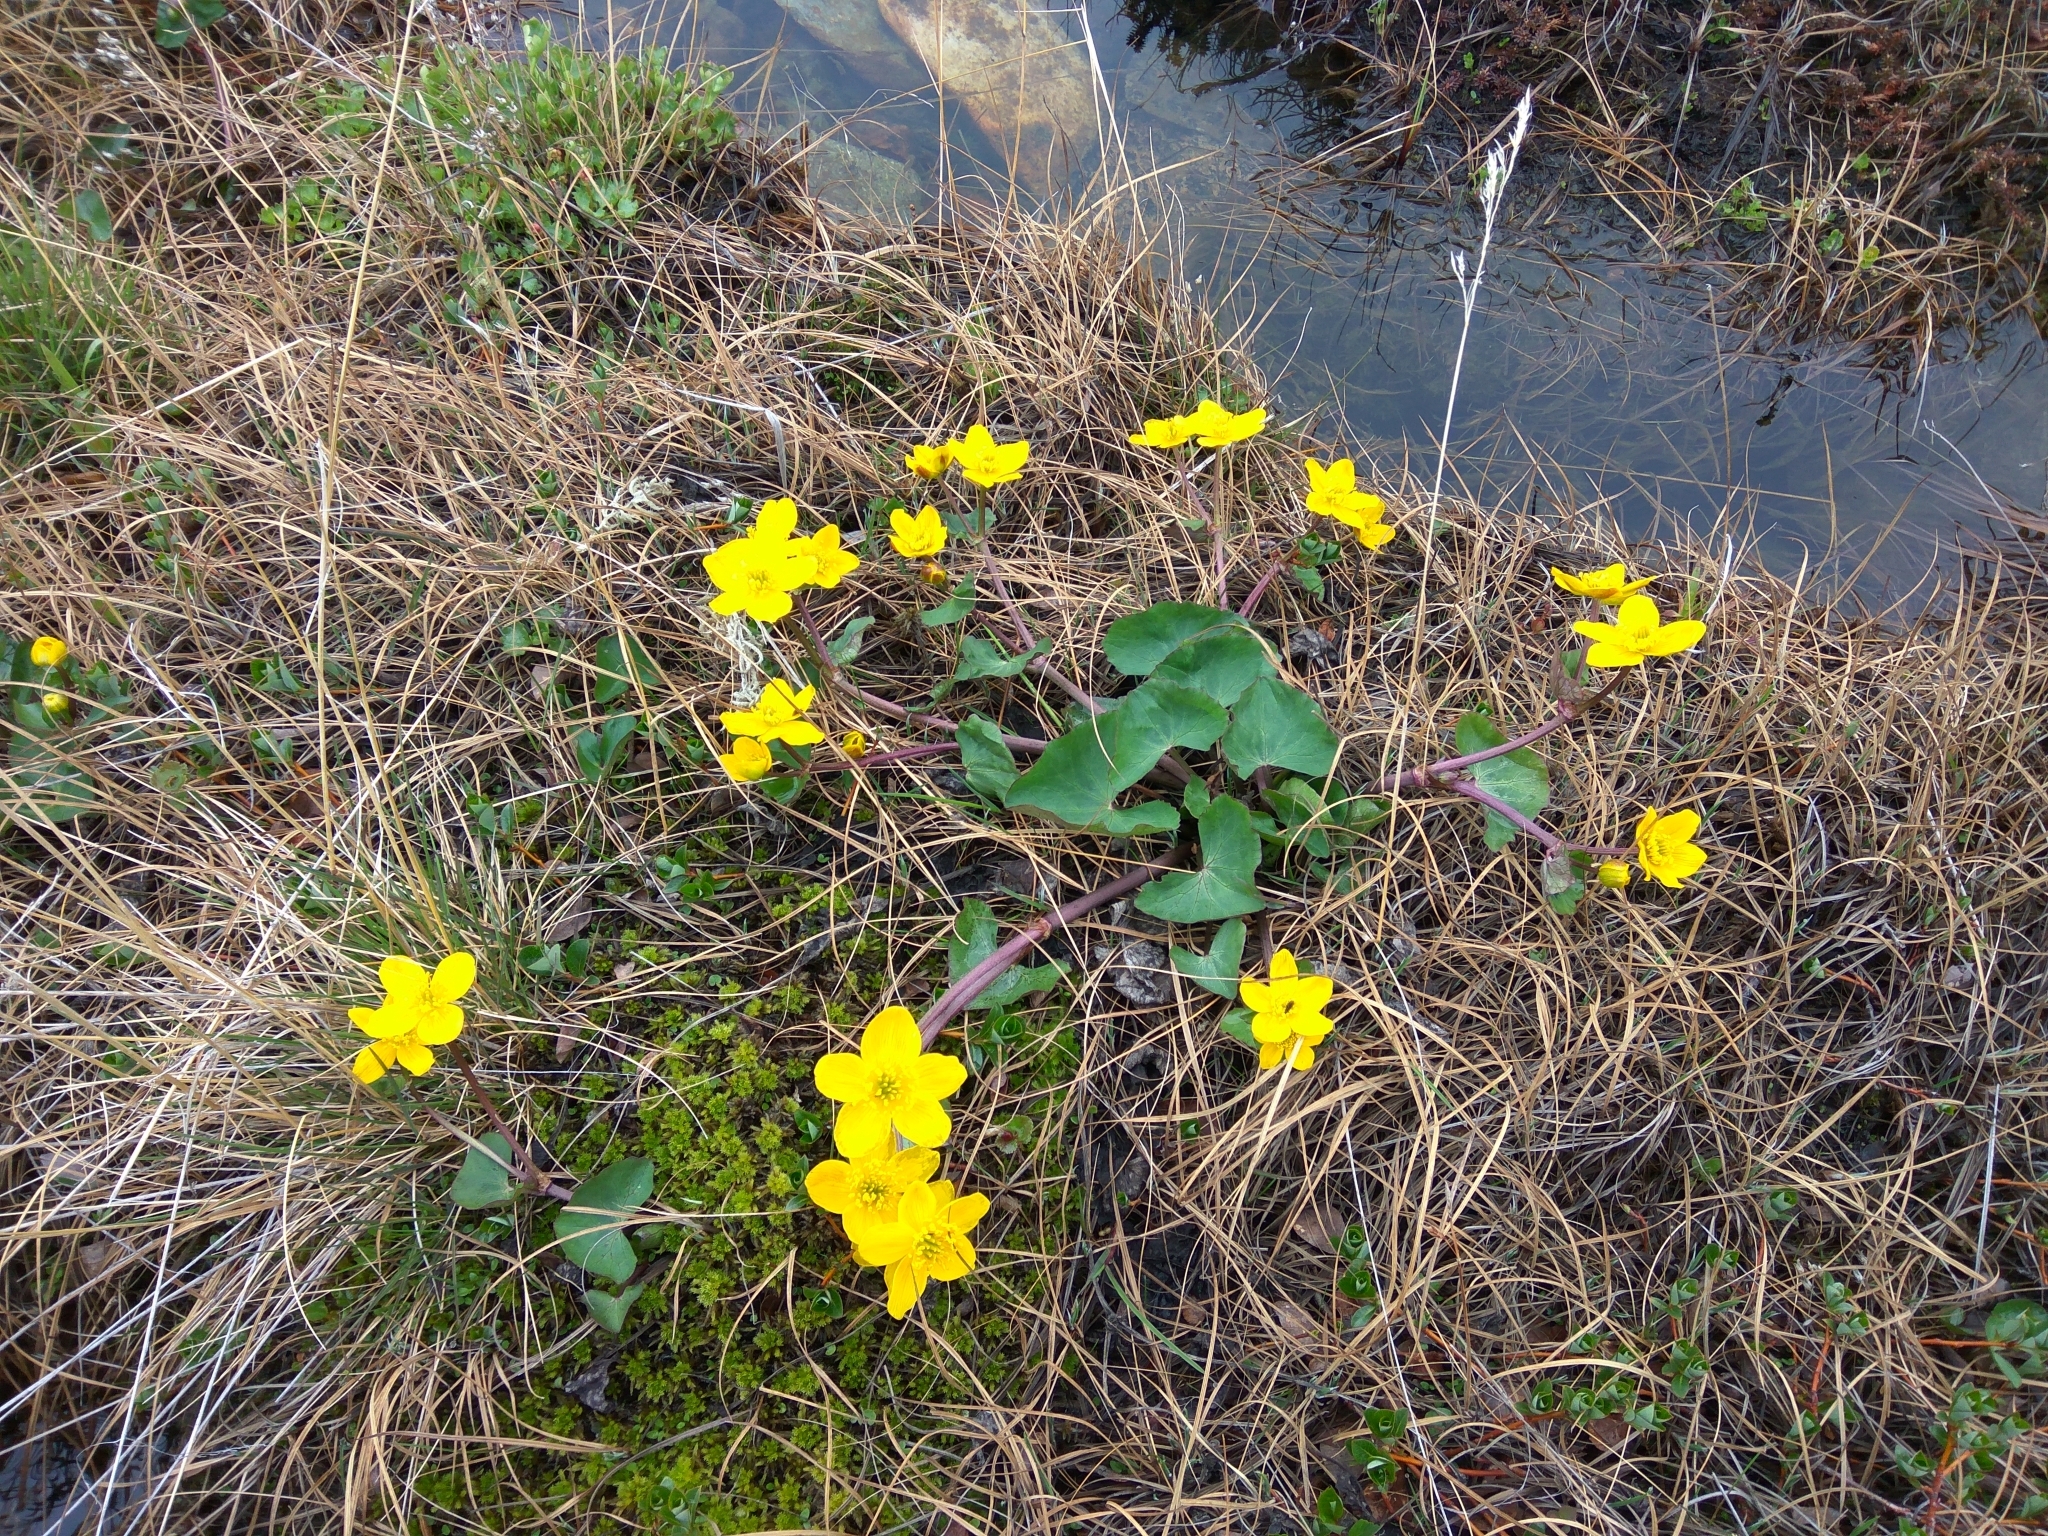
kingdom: Plantae
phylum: Tracheophyta
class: Magnoliopsida
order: Ranunculales
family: Ranunculaceae
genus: Caltha
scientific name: Caltha palustris
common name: Marsh marigold
